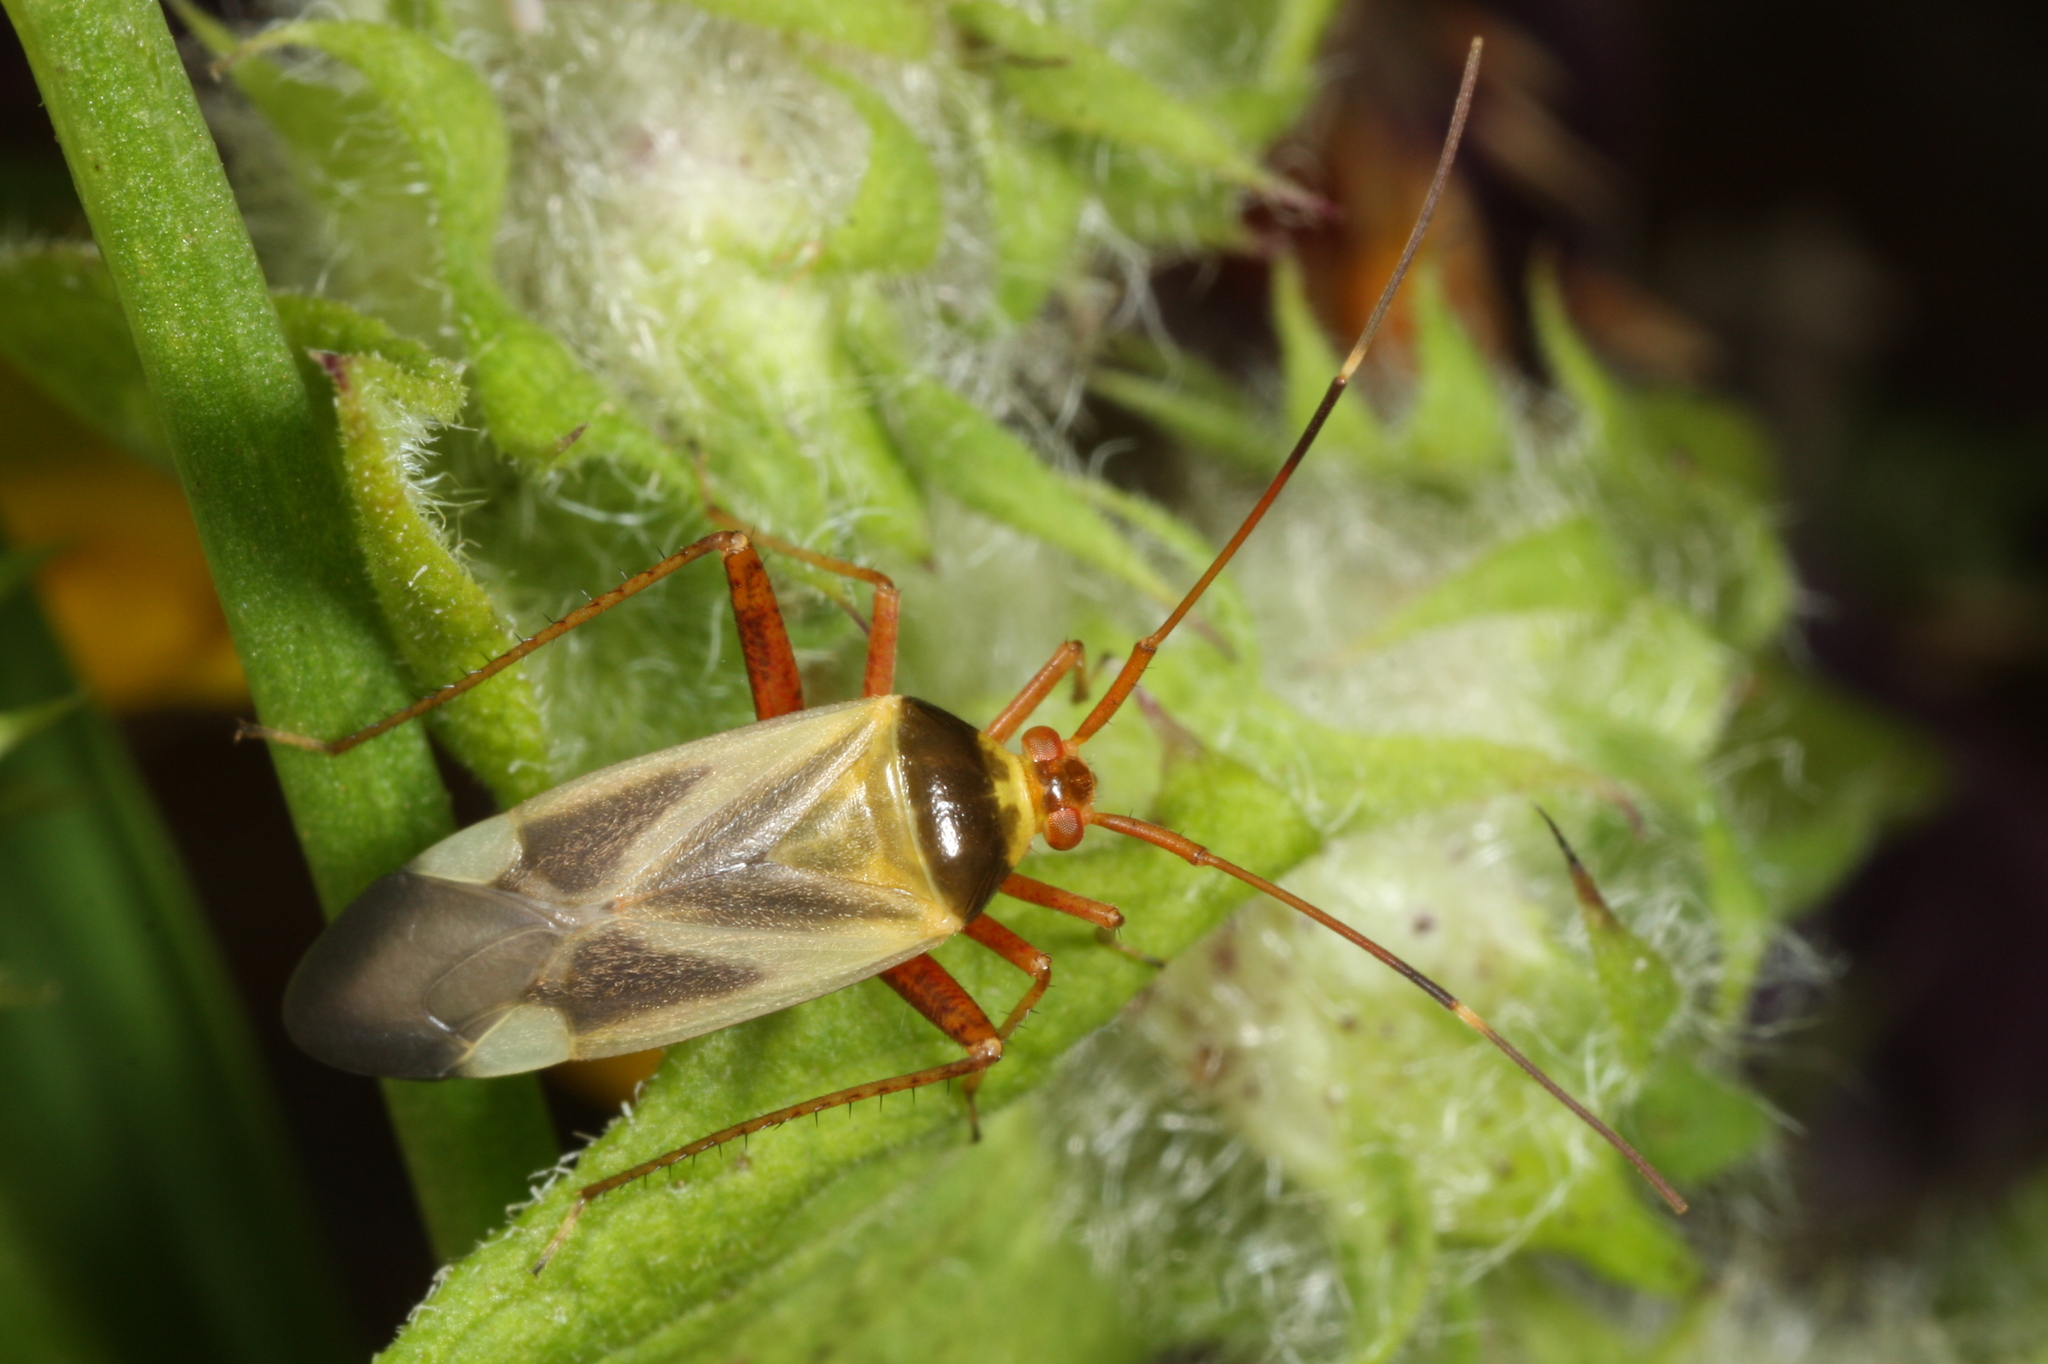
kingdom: Animalia
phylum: Arthropoda
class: Insecta
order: Hemiptera
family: Miridae
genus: Adelphocoris
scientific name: Adelphocoris reicheli
